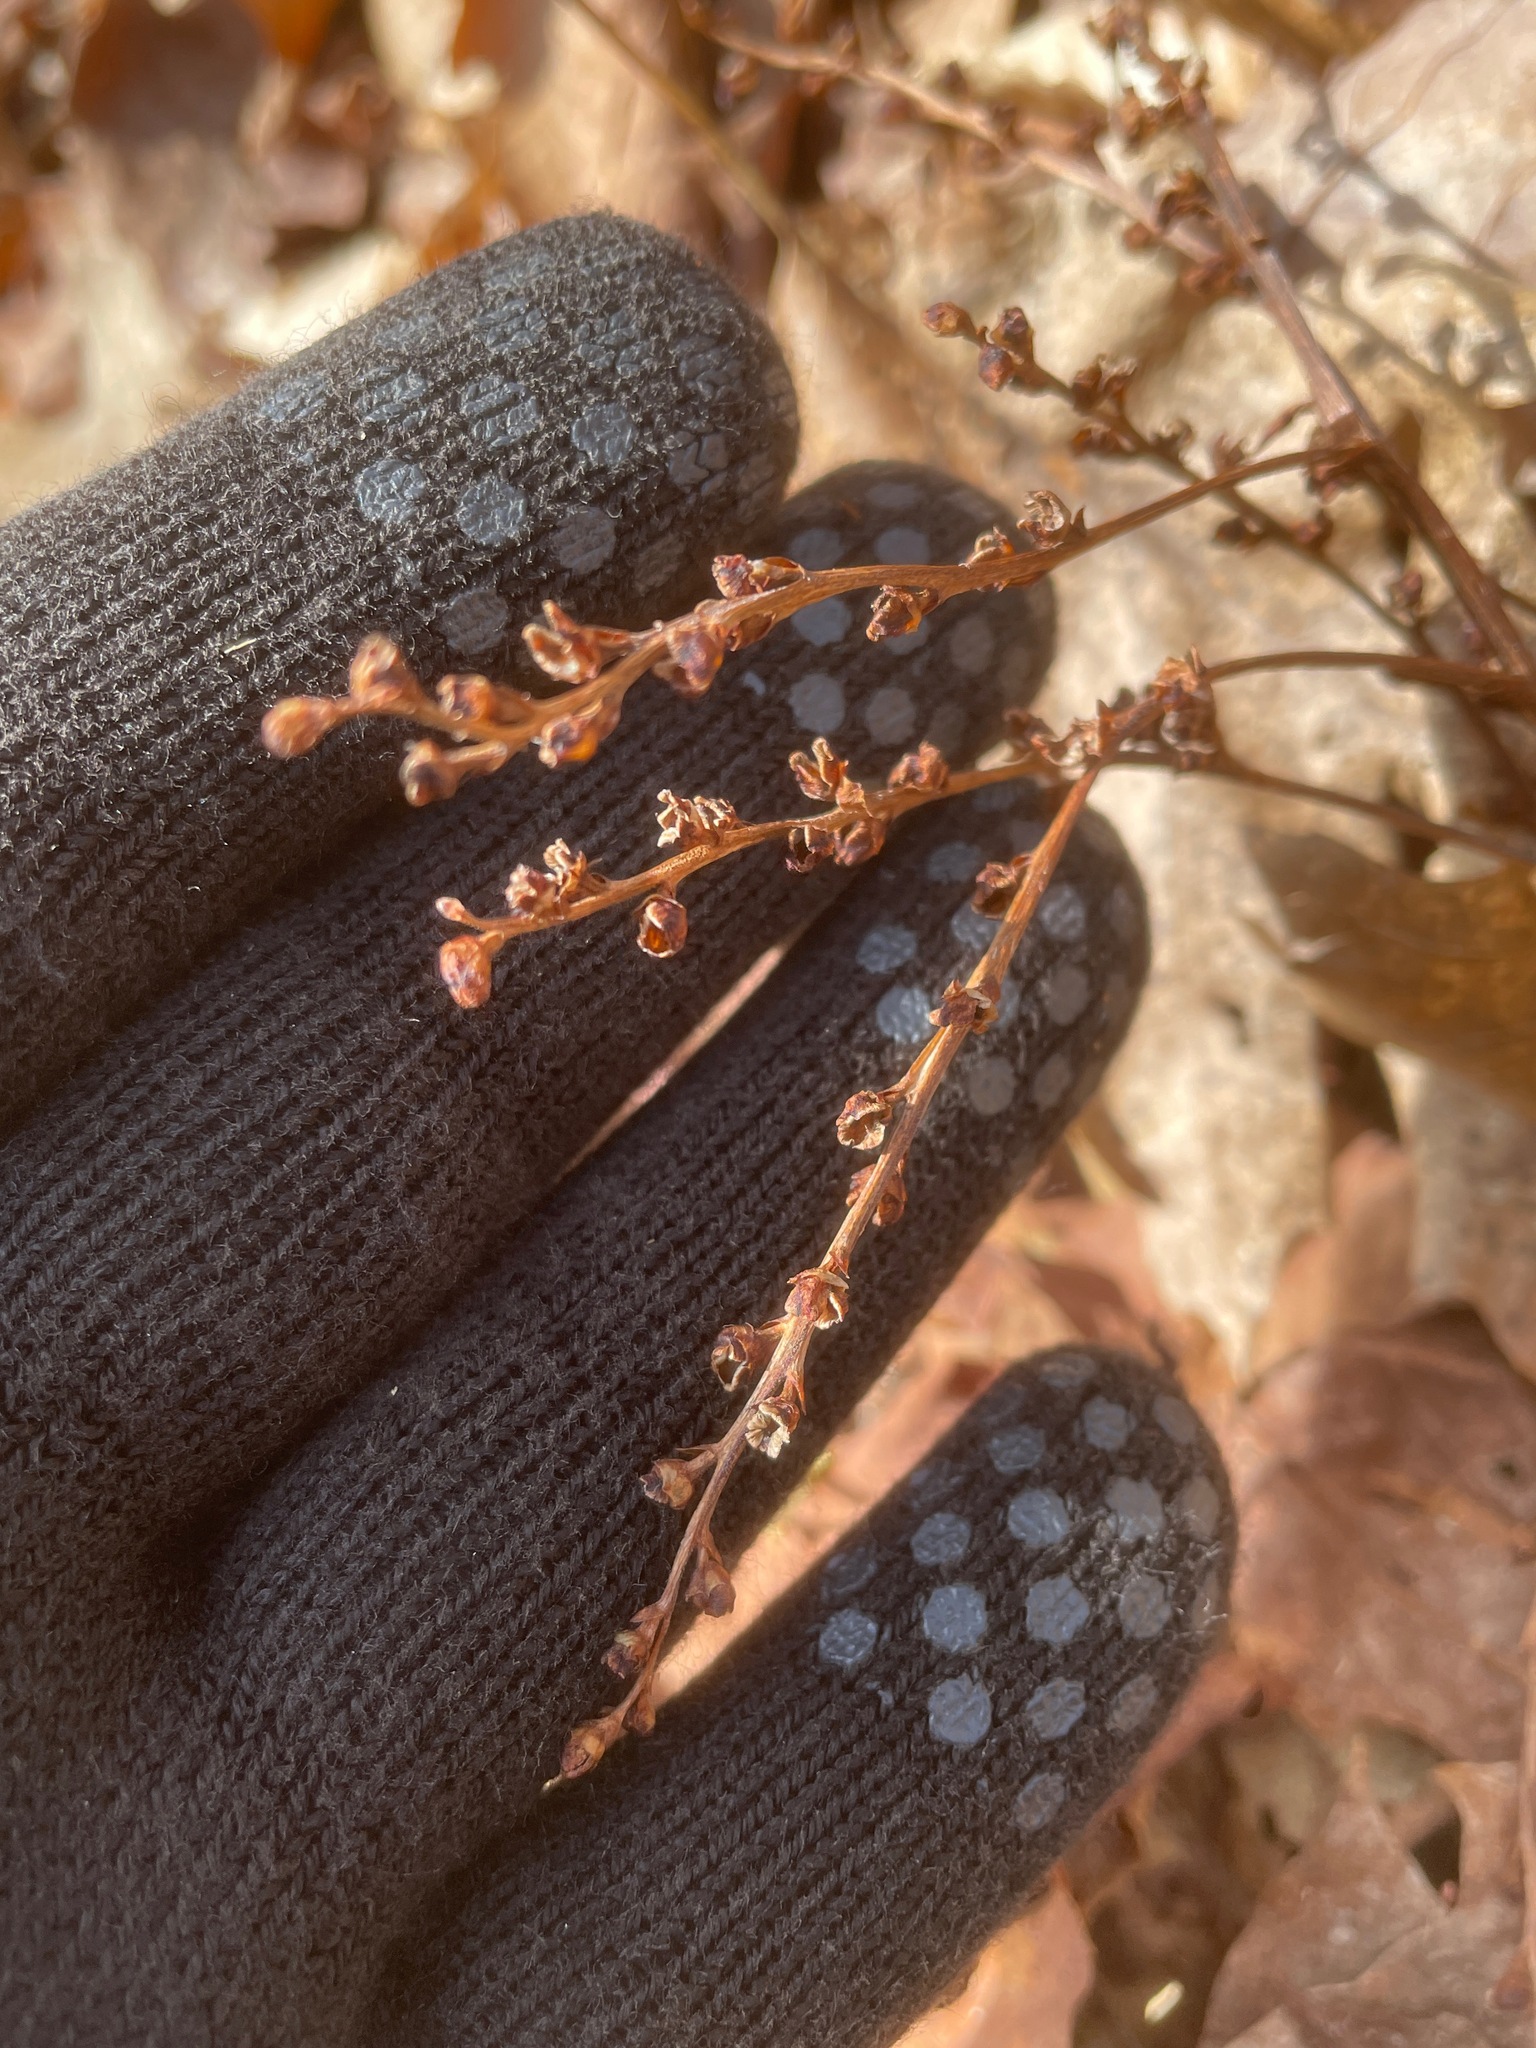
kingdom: Plantae
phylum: Tracheophyta
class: Magnoliopsida
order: Lamiales
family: Orobanchaceae
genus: Epifagus
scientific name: Epifagus virginiana
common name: Beechdrops
